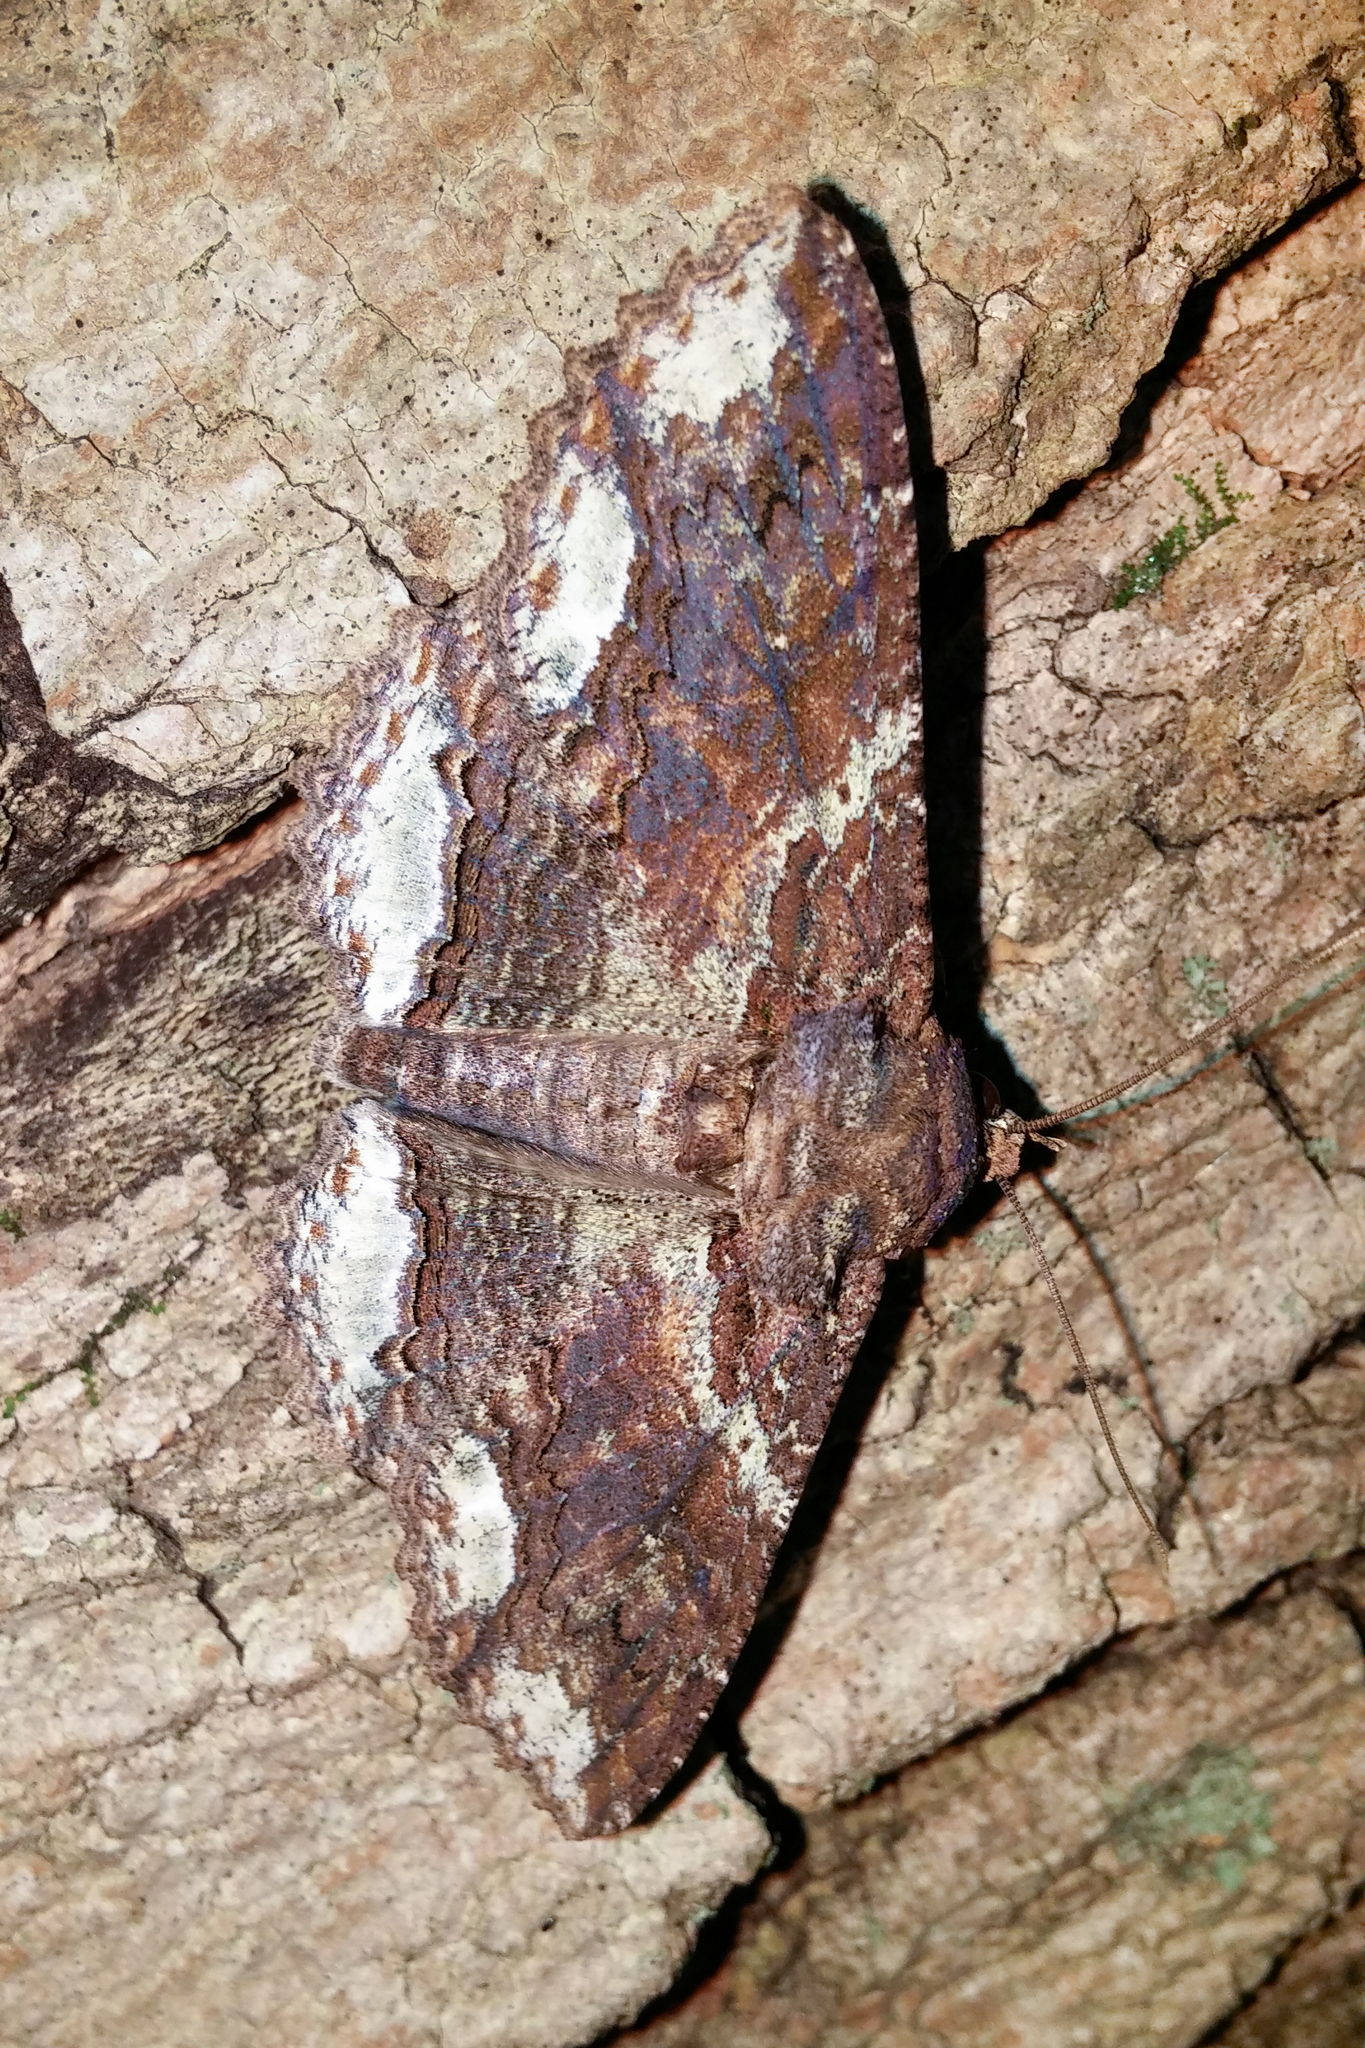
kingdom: Animalia
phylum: Arthropoda
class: Insecta
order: Lepidoptera
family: Erebidae
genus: Zale
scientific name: Zale lunata
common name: Lunate zale moth
